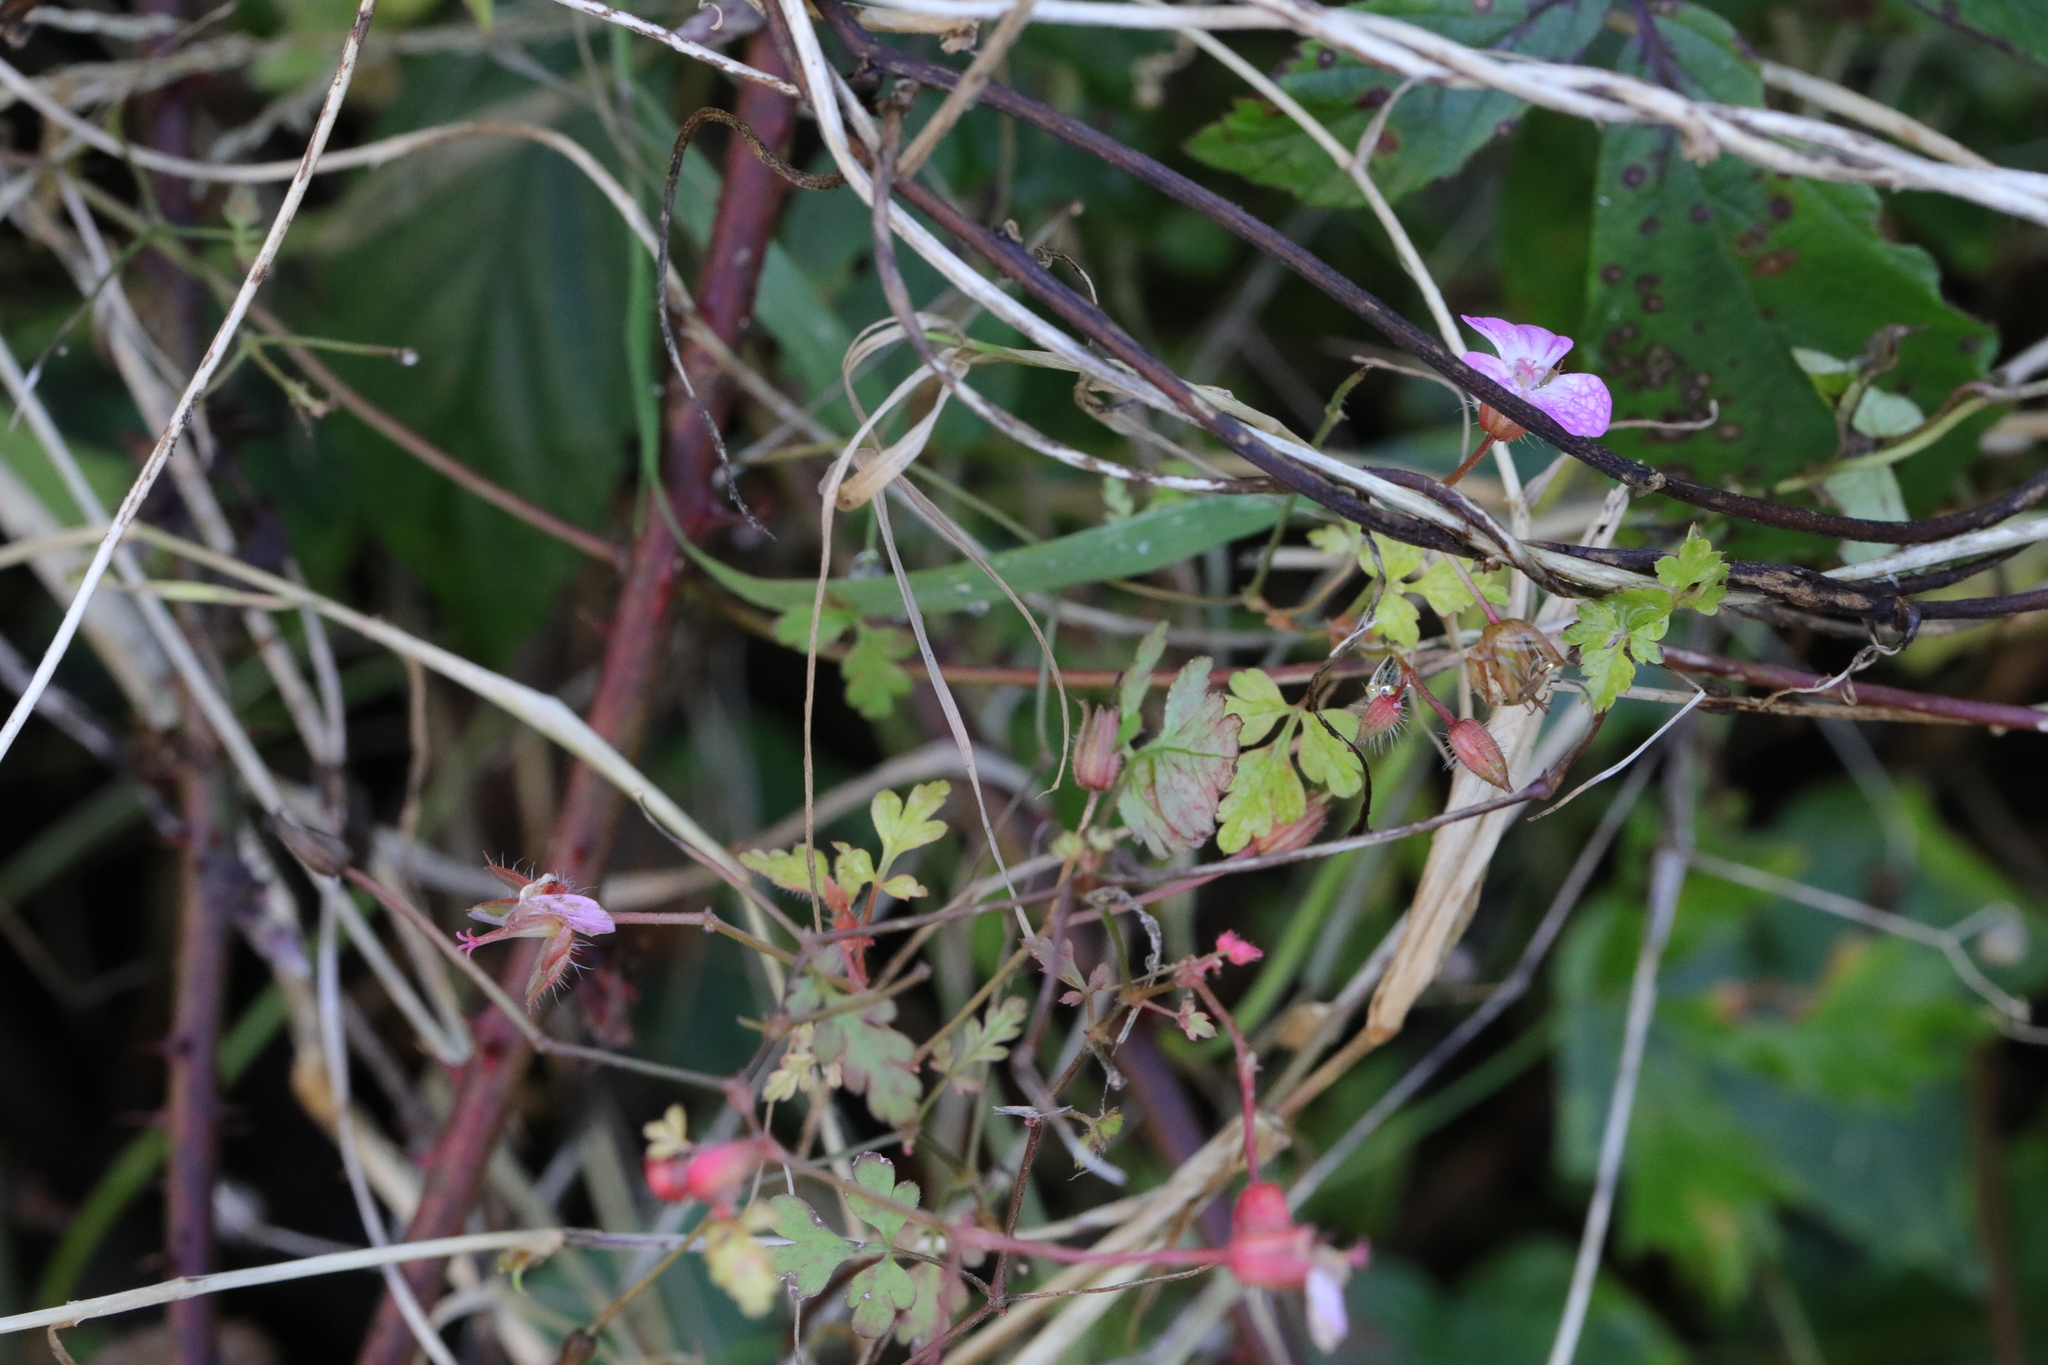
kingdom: Plantae
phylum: Tracheophyta
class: Magnoliopsida
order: Geraniales
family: Geraniaceae
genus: Geranium
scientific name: Geranium robertianum
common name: Herb-robert
